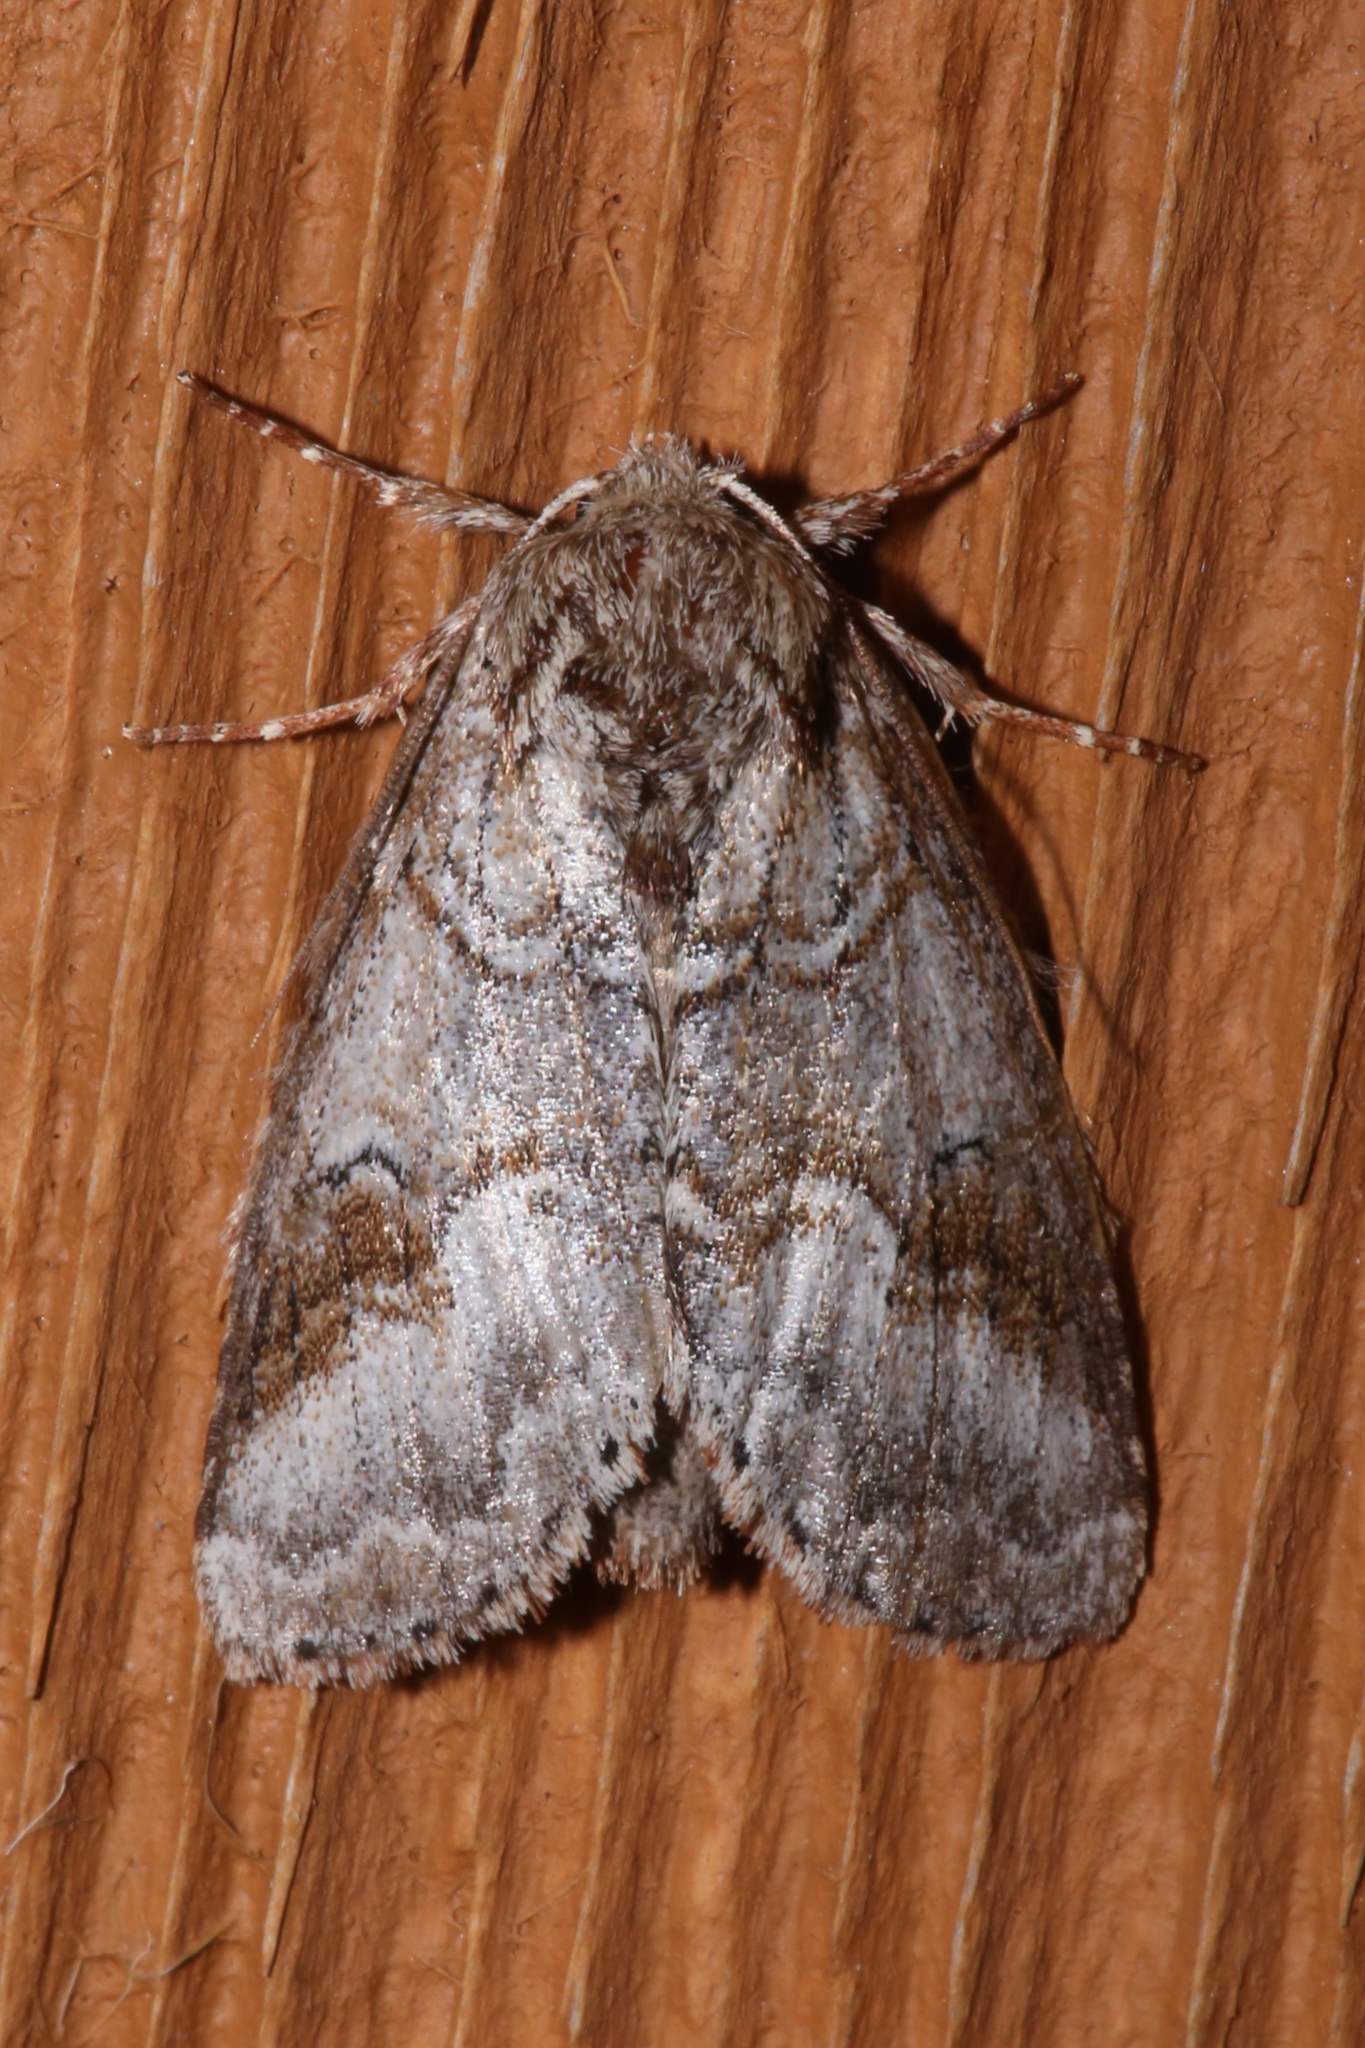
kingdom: Animalia
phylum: Arthropoda
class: Insecta
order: Lepidoptera
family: Notodontidae
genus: Lochmaeus
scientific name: Lochmaeus bilineata
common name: Double-lined prominent
